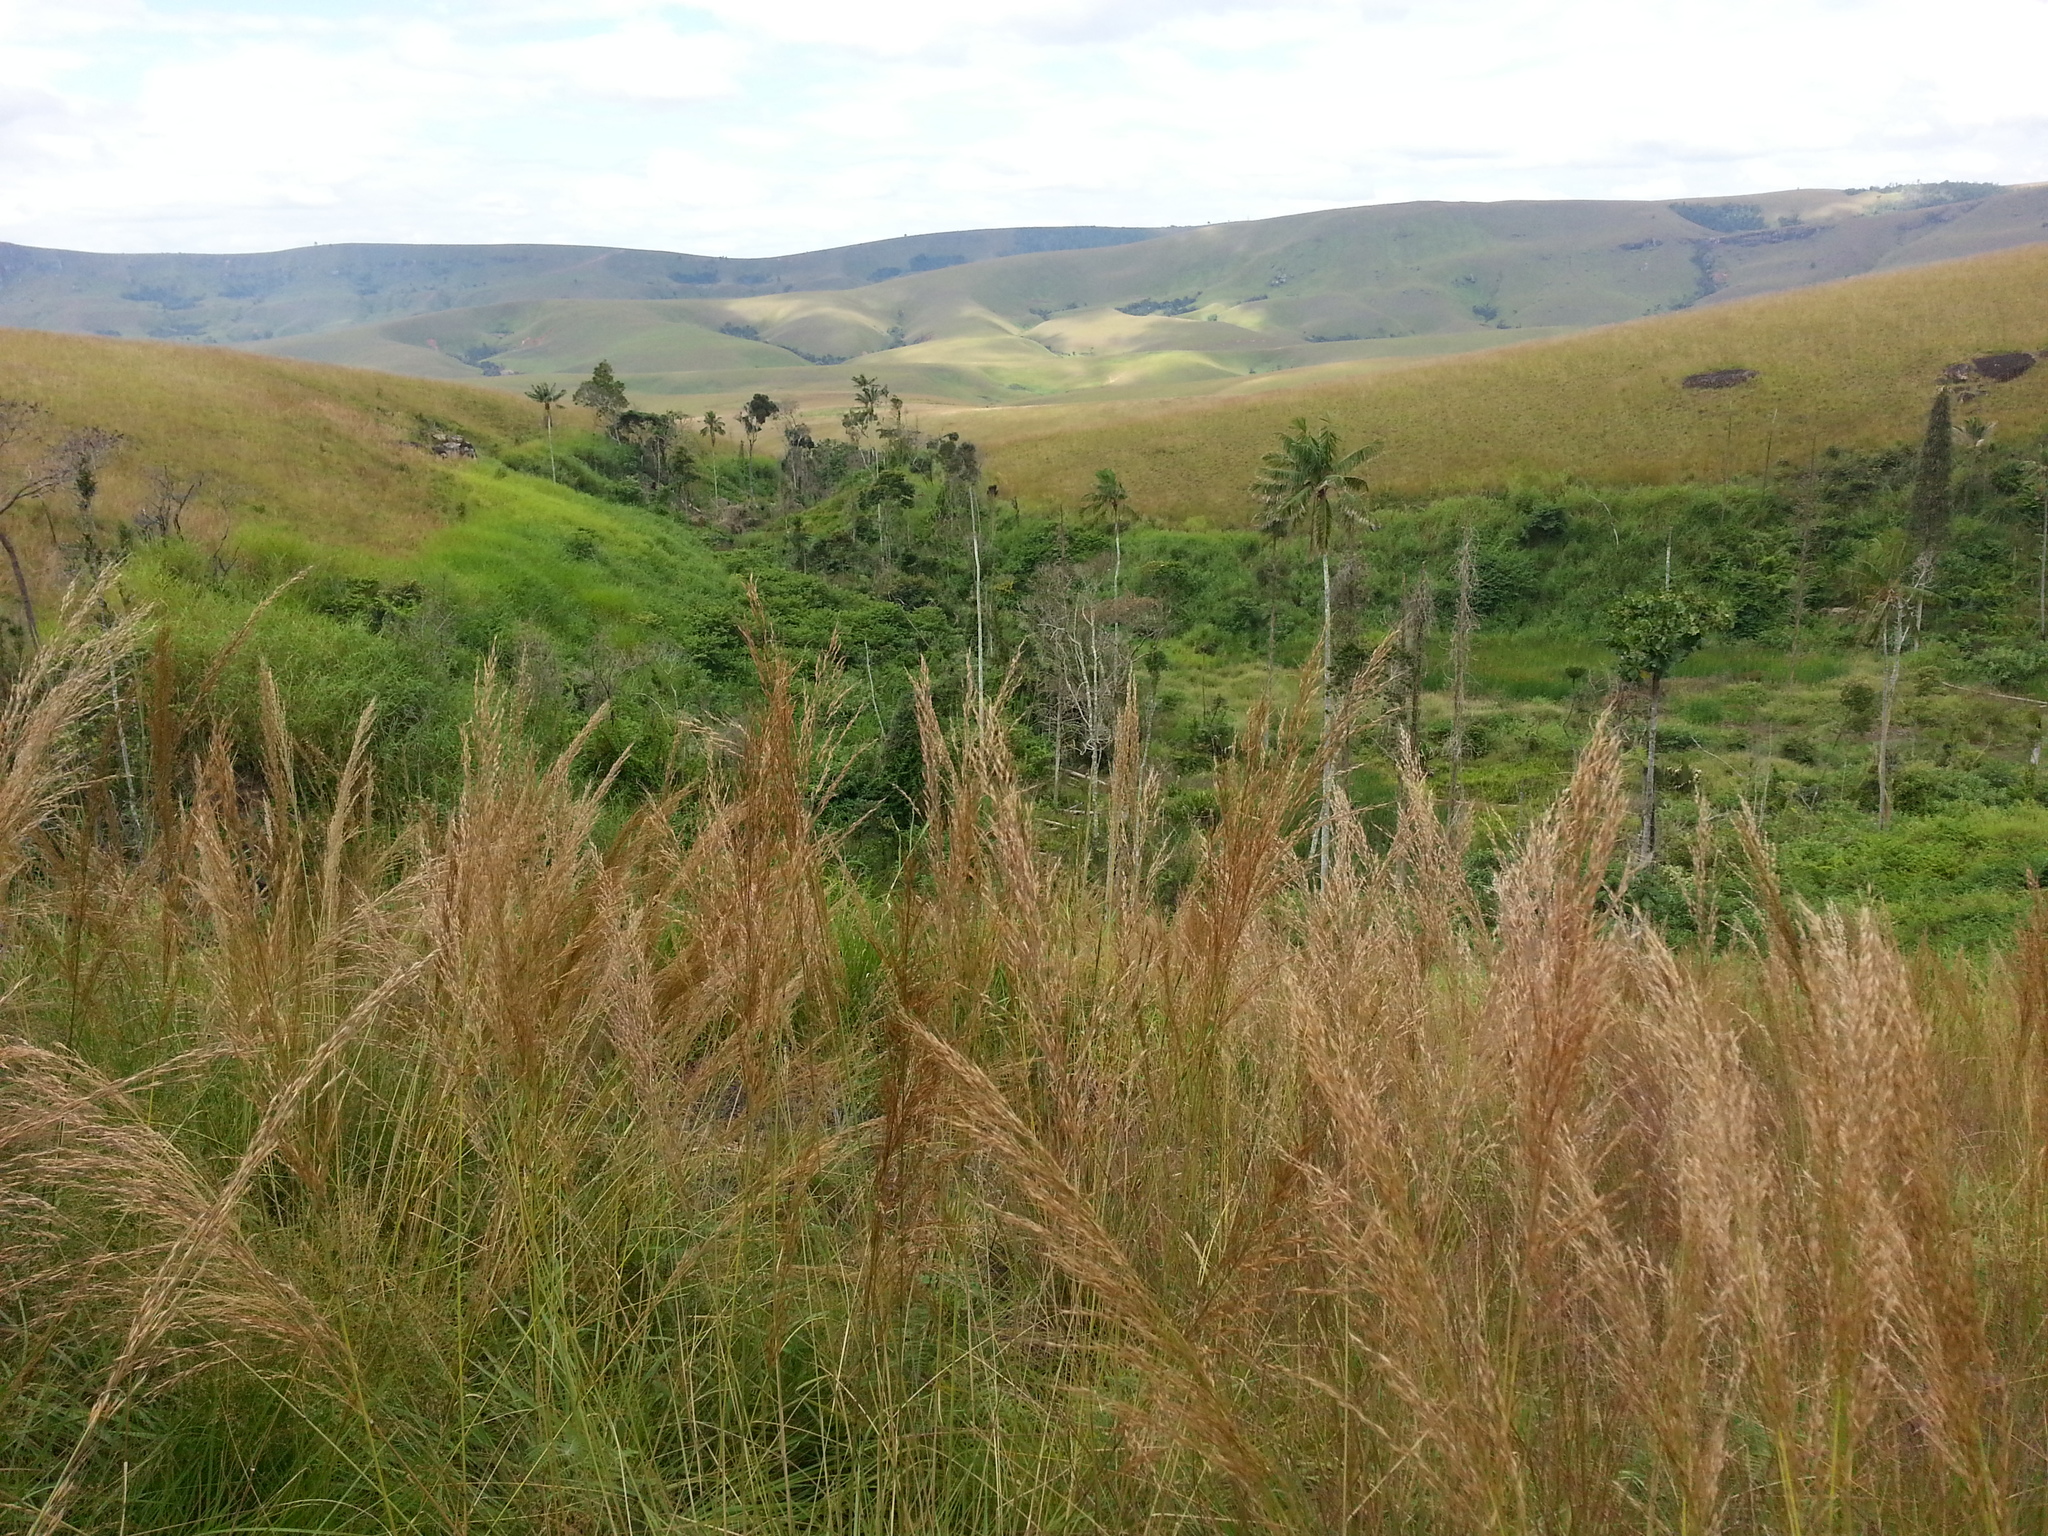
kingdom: Plantae
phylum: Tracheophyta
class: Liliopsida
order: Poales
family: Poaceae
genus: Loudetia
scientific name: Loudetia simplex
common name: Common russet grass
